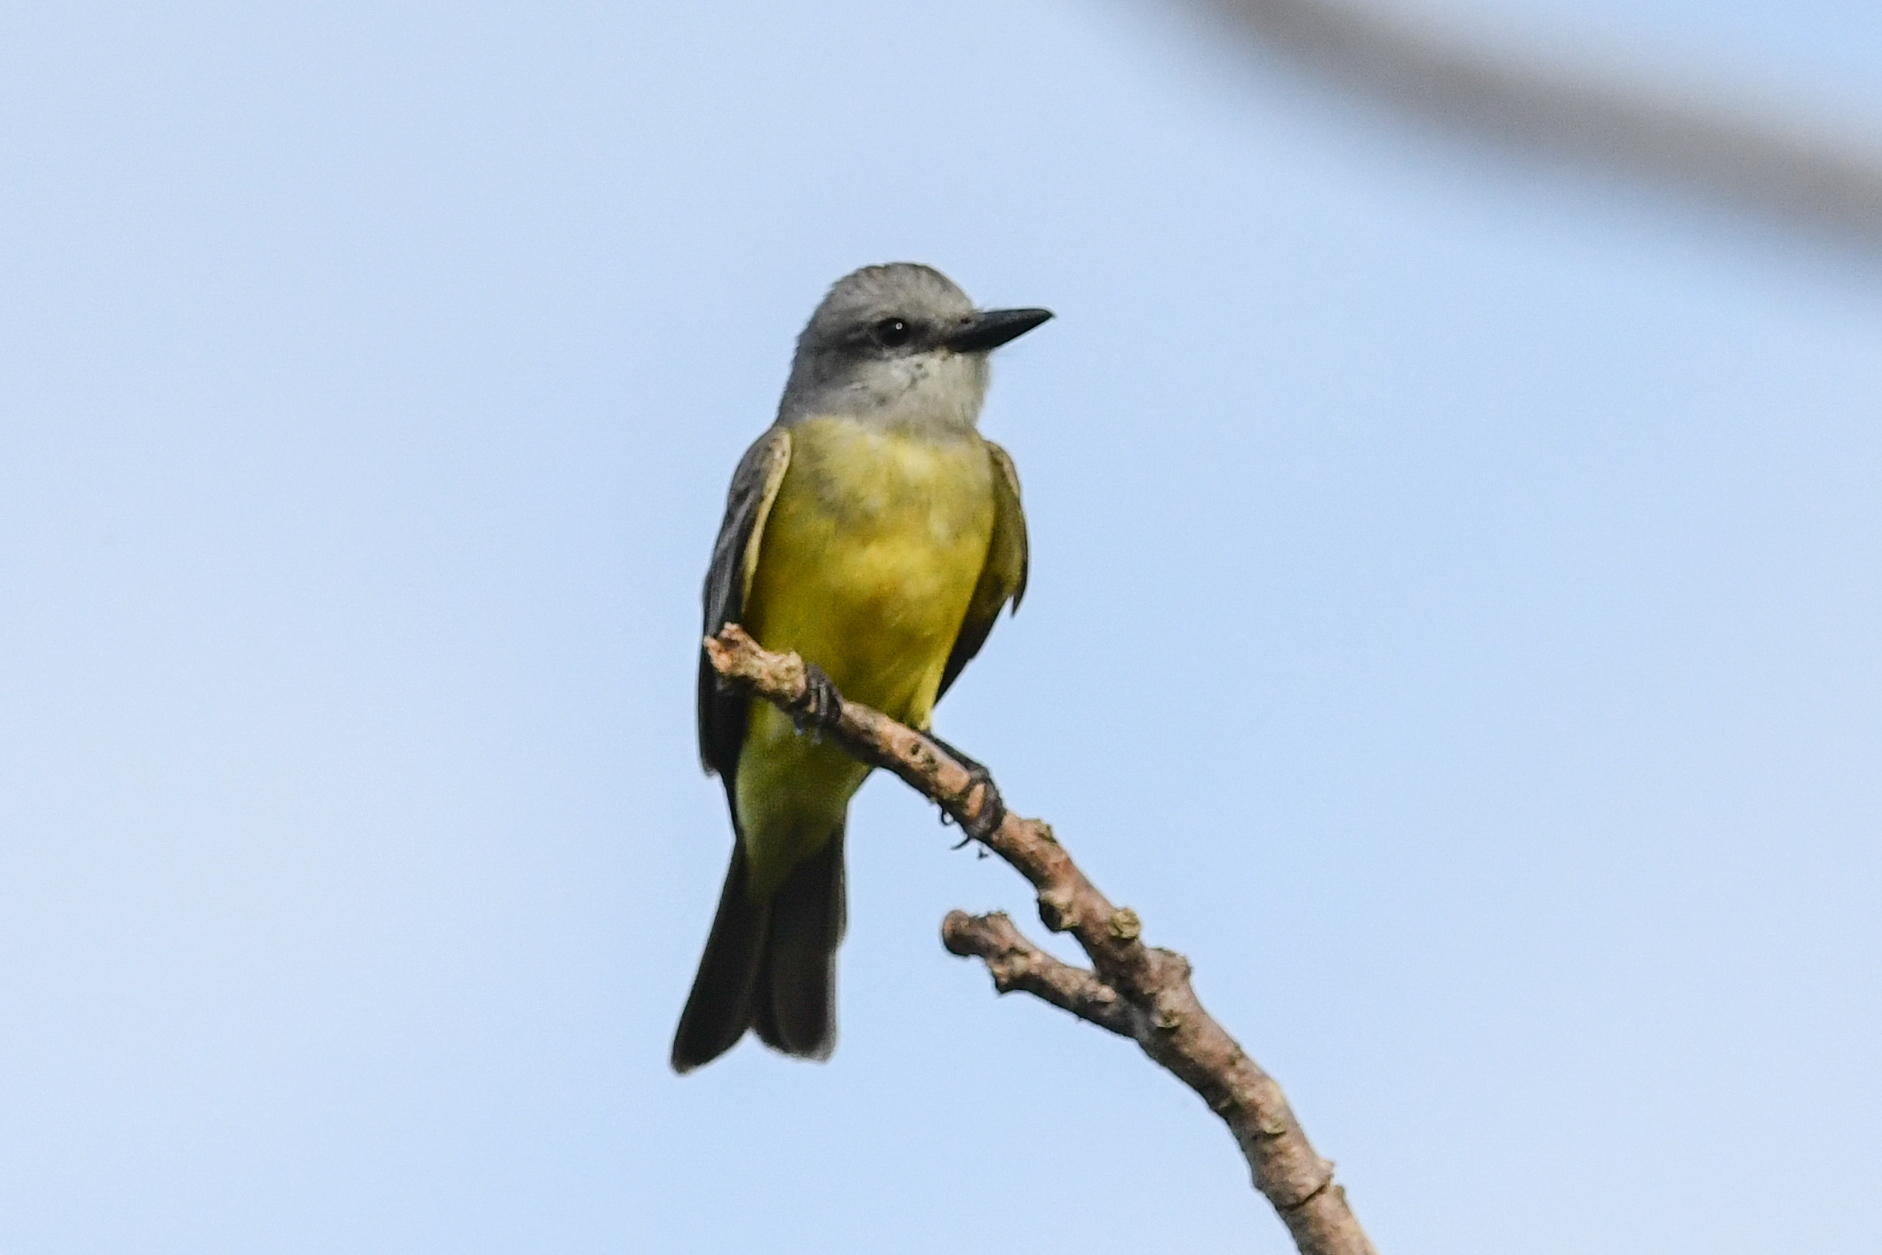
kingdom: Animalia
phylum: Chordata
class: Aves
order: Passeriformes
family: Tyrannidae
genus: Tyrannus
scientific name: Tyrannus melancholicus
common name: Tropical kingbird
